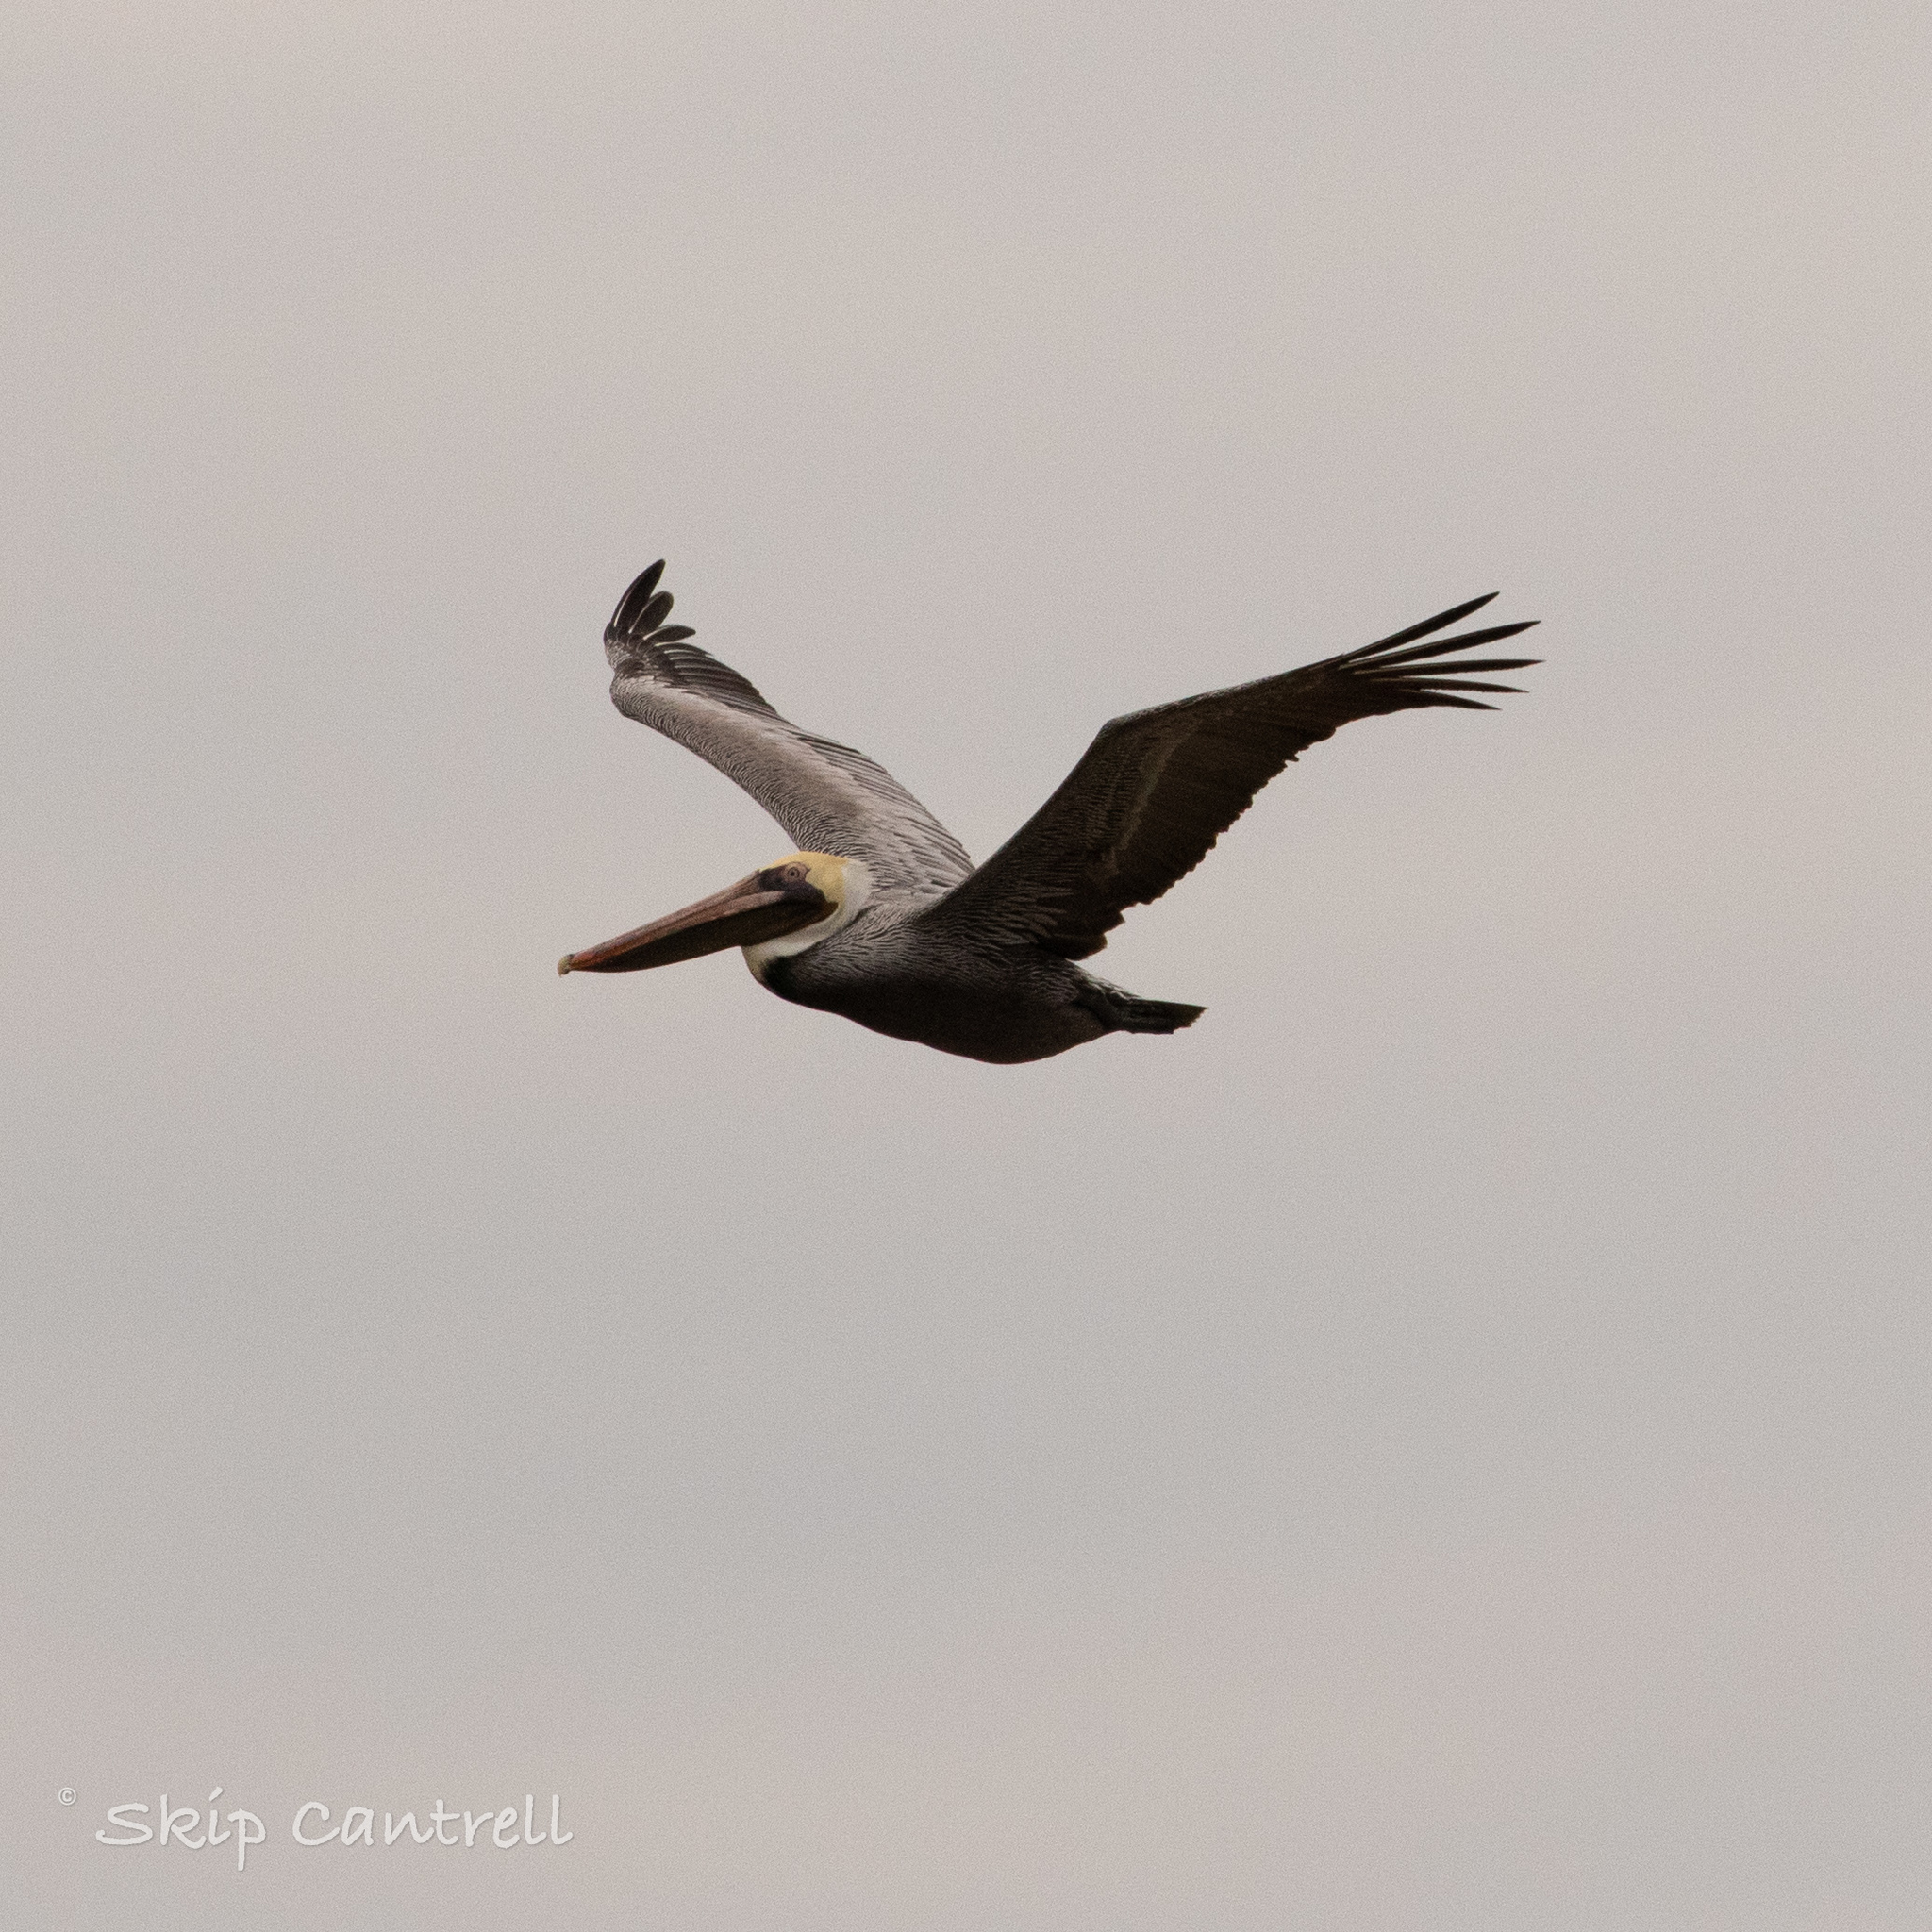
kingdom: Animalia
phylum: Chordata
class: Aves
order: Pelecaniformes
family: Pelecanidae
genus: Pelecanus
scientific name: Pelecanus occidentalis
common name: Brown pelican
